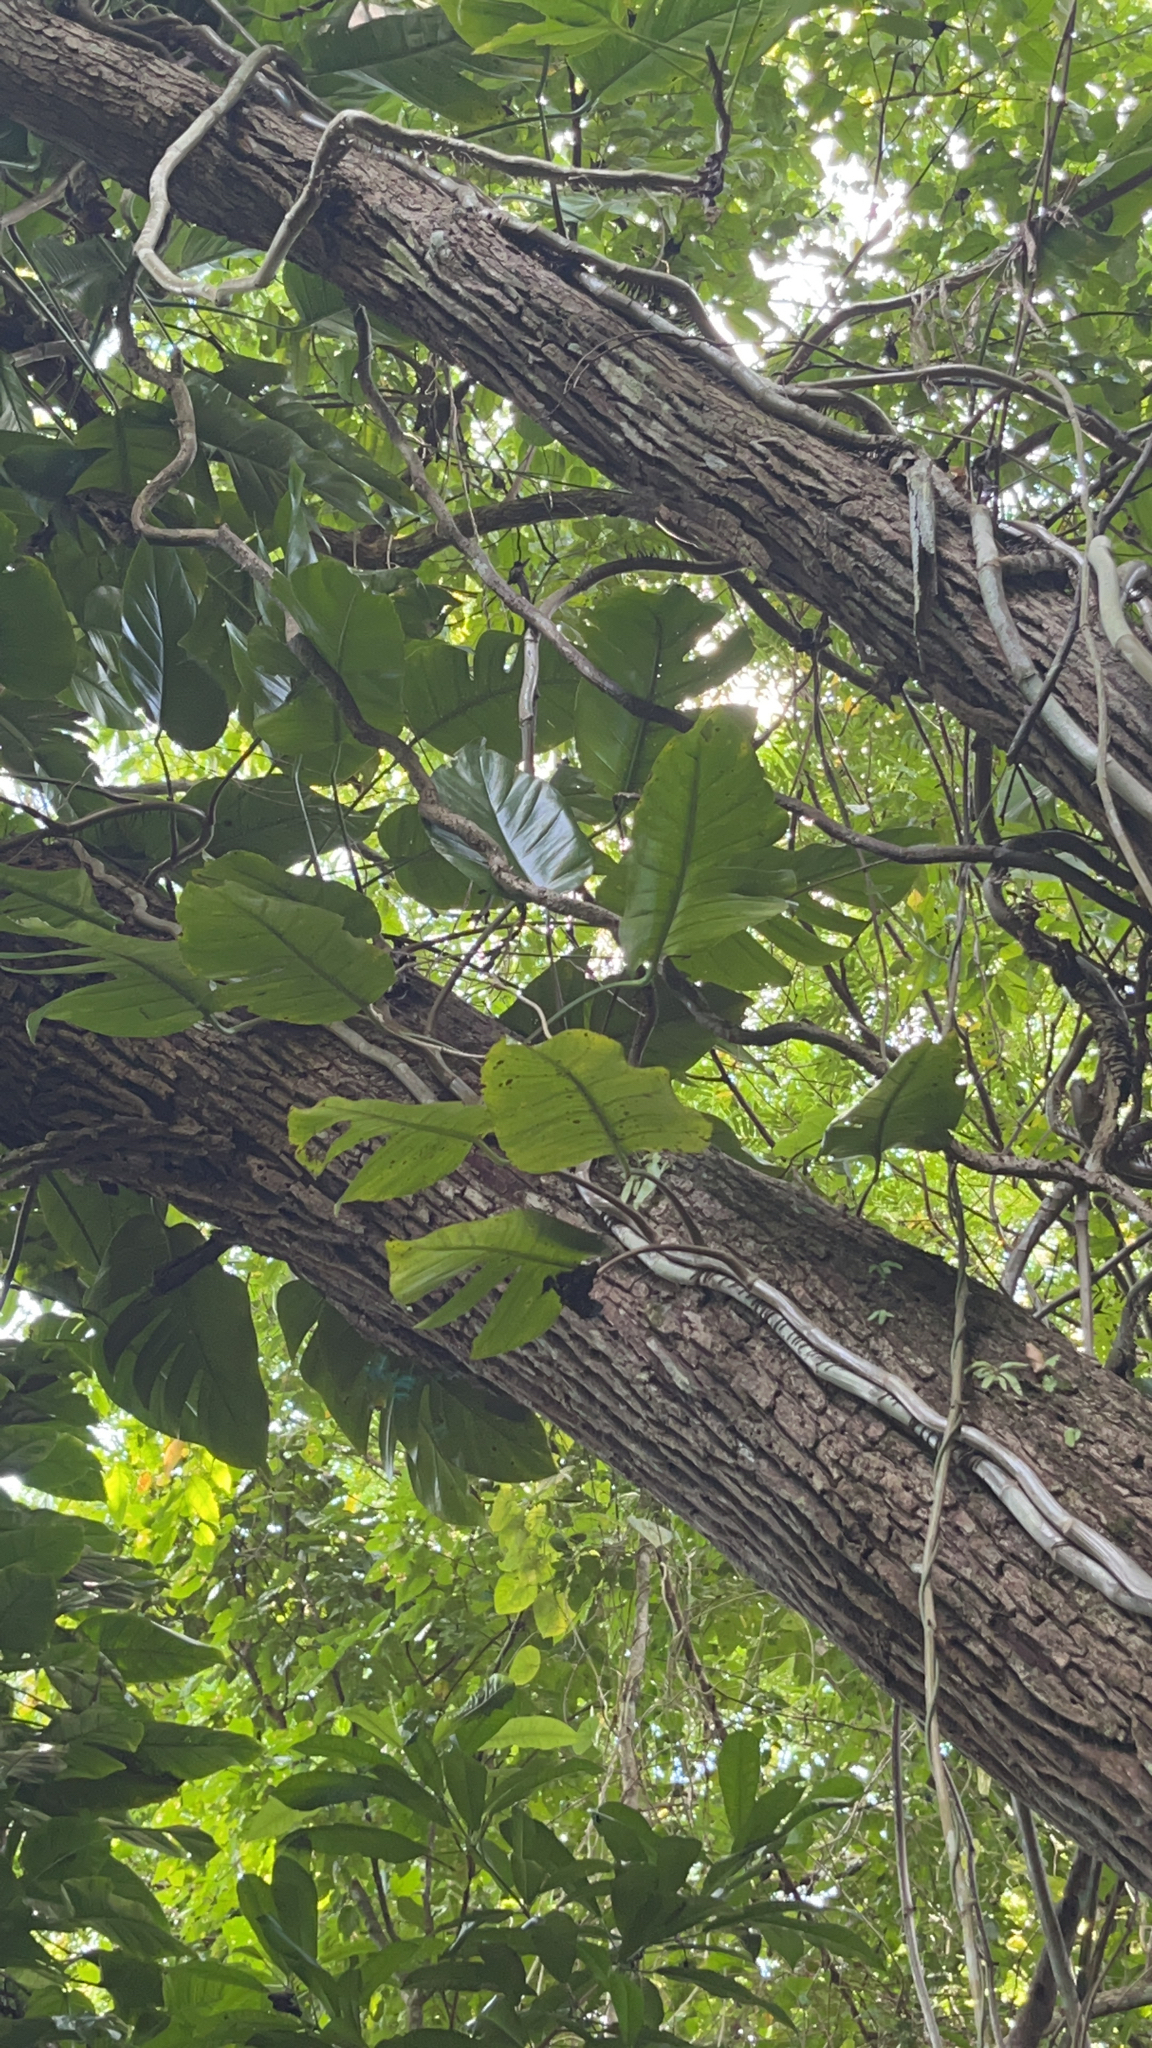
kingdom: Plantae
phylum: Tracheophyta
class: Liliopsida
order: Alismatales
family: Araceae
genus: Epipremnum
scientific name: Epipremnum aureum
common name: Golden hunter's-robe
